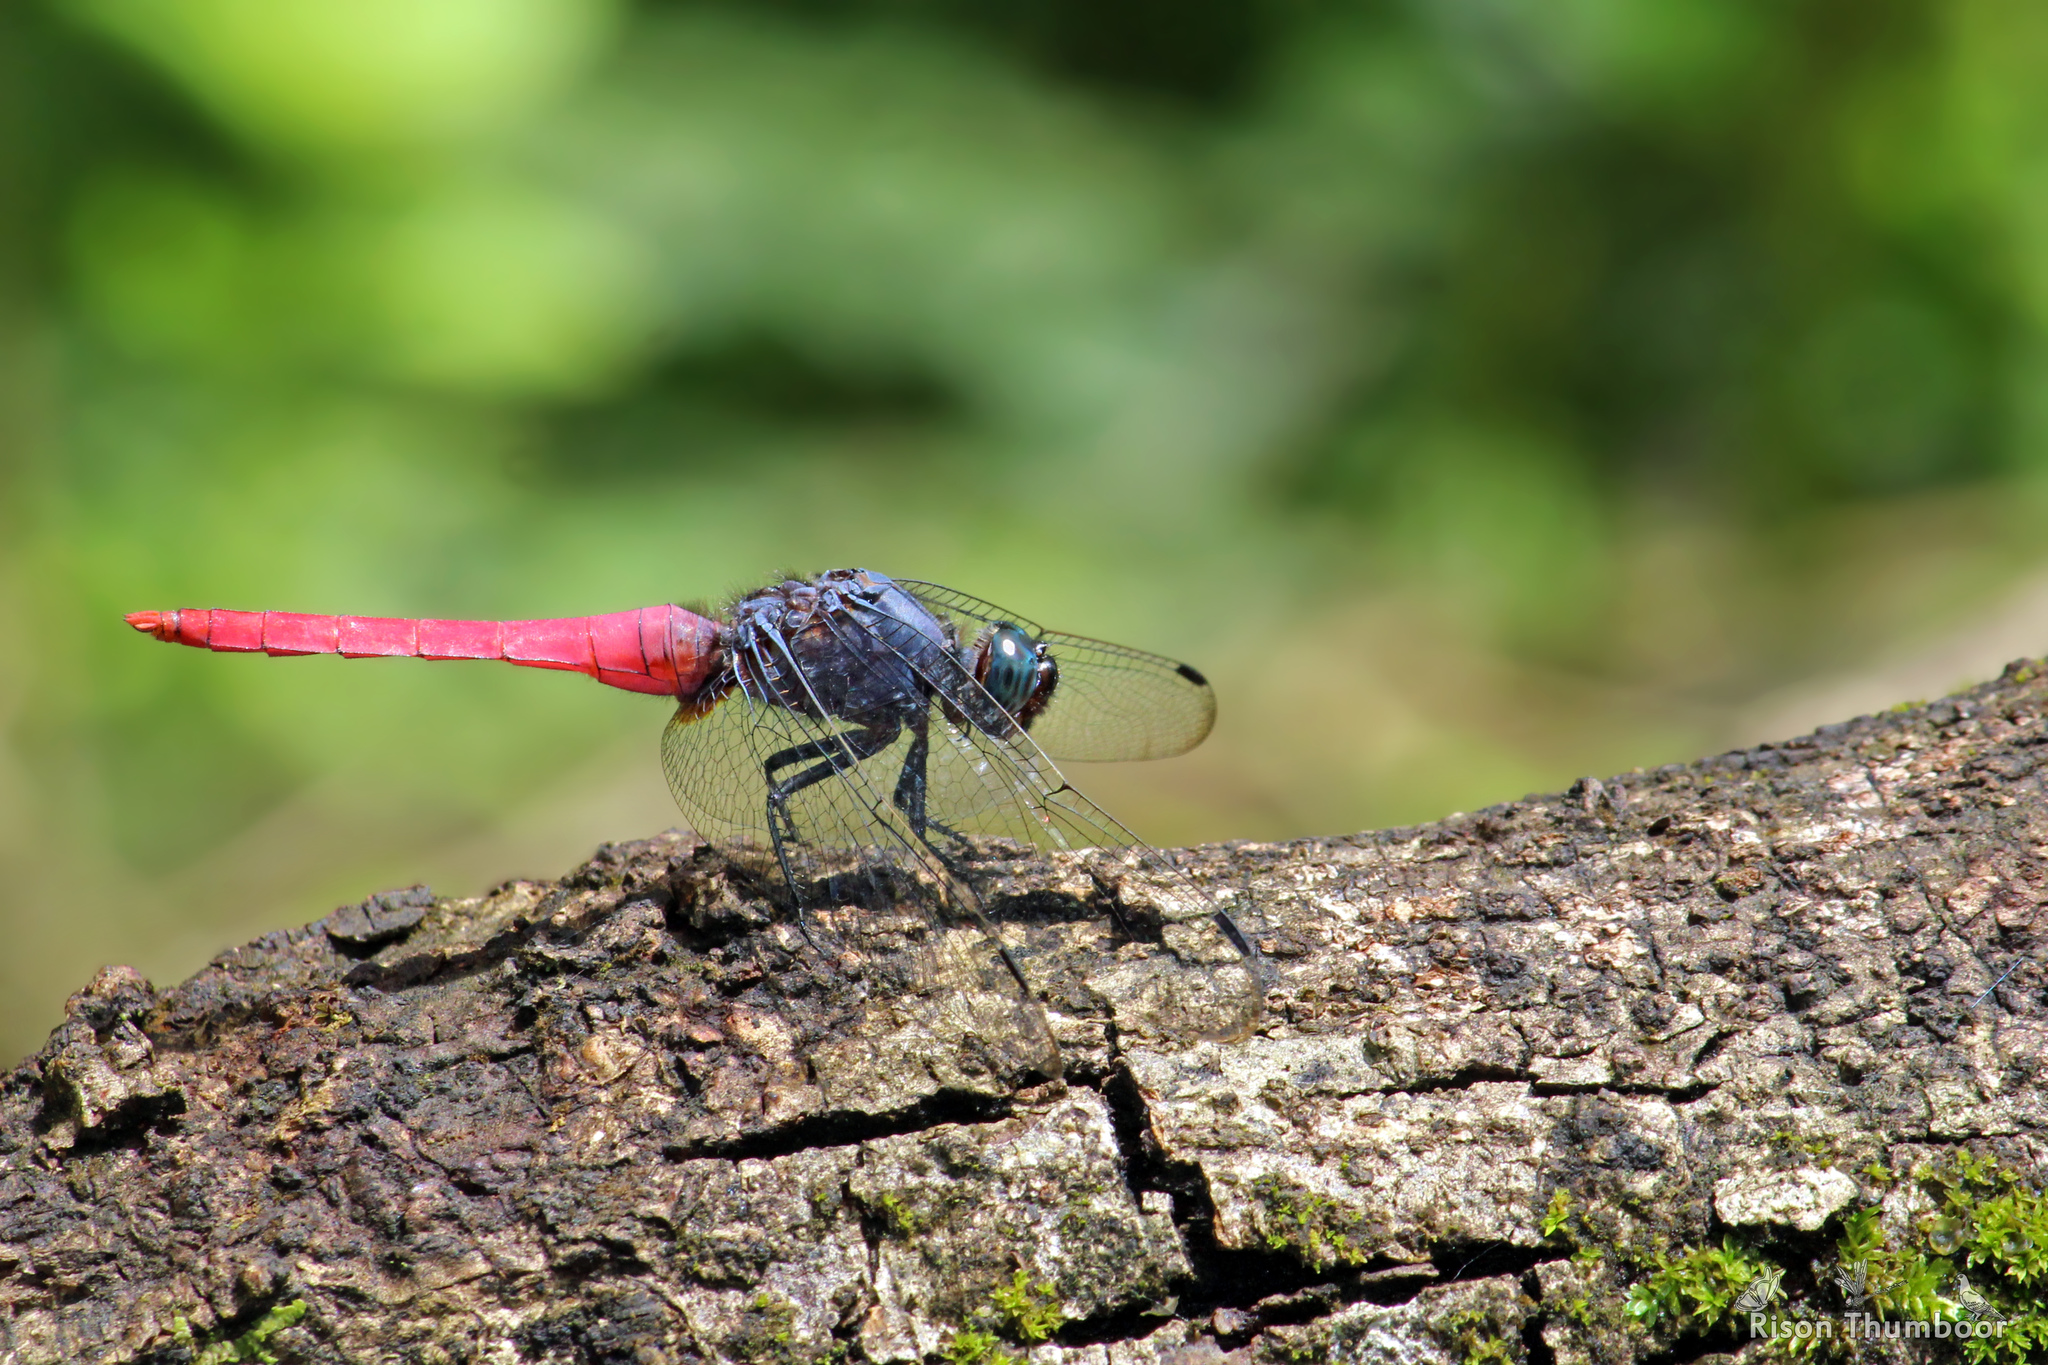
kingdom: Animalia
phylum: Arthropoda
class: Insecta
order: Odonata
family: Libellulidae
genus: Orthetrum
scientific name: Orthetrum pruinosum
